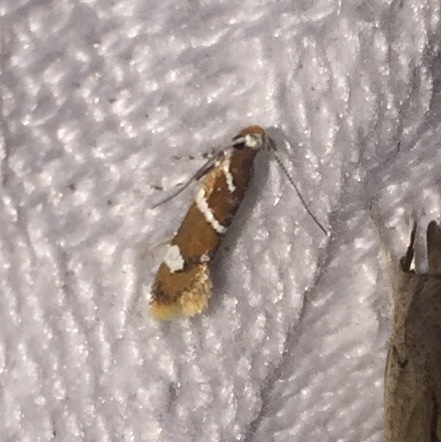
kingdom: Animalia
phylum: Arthropoda
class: Insecta
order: Lepidoptera
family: Oecophoridae
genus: Promalactis
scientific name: Promalactis suzukiella
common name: Moth
